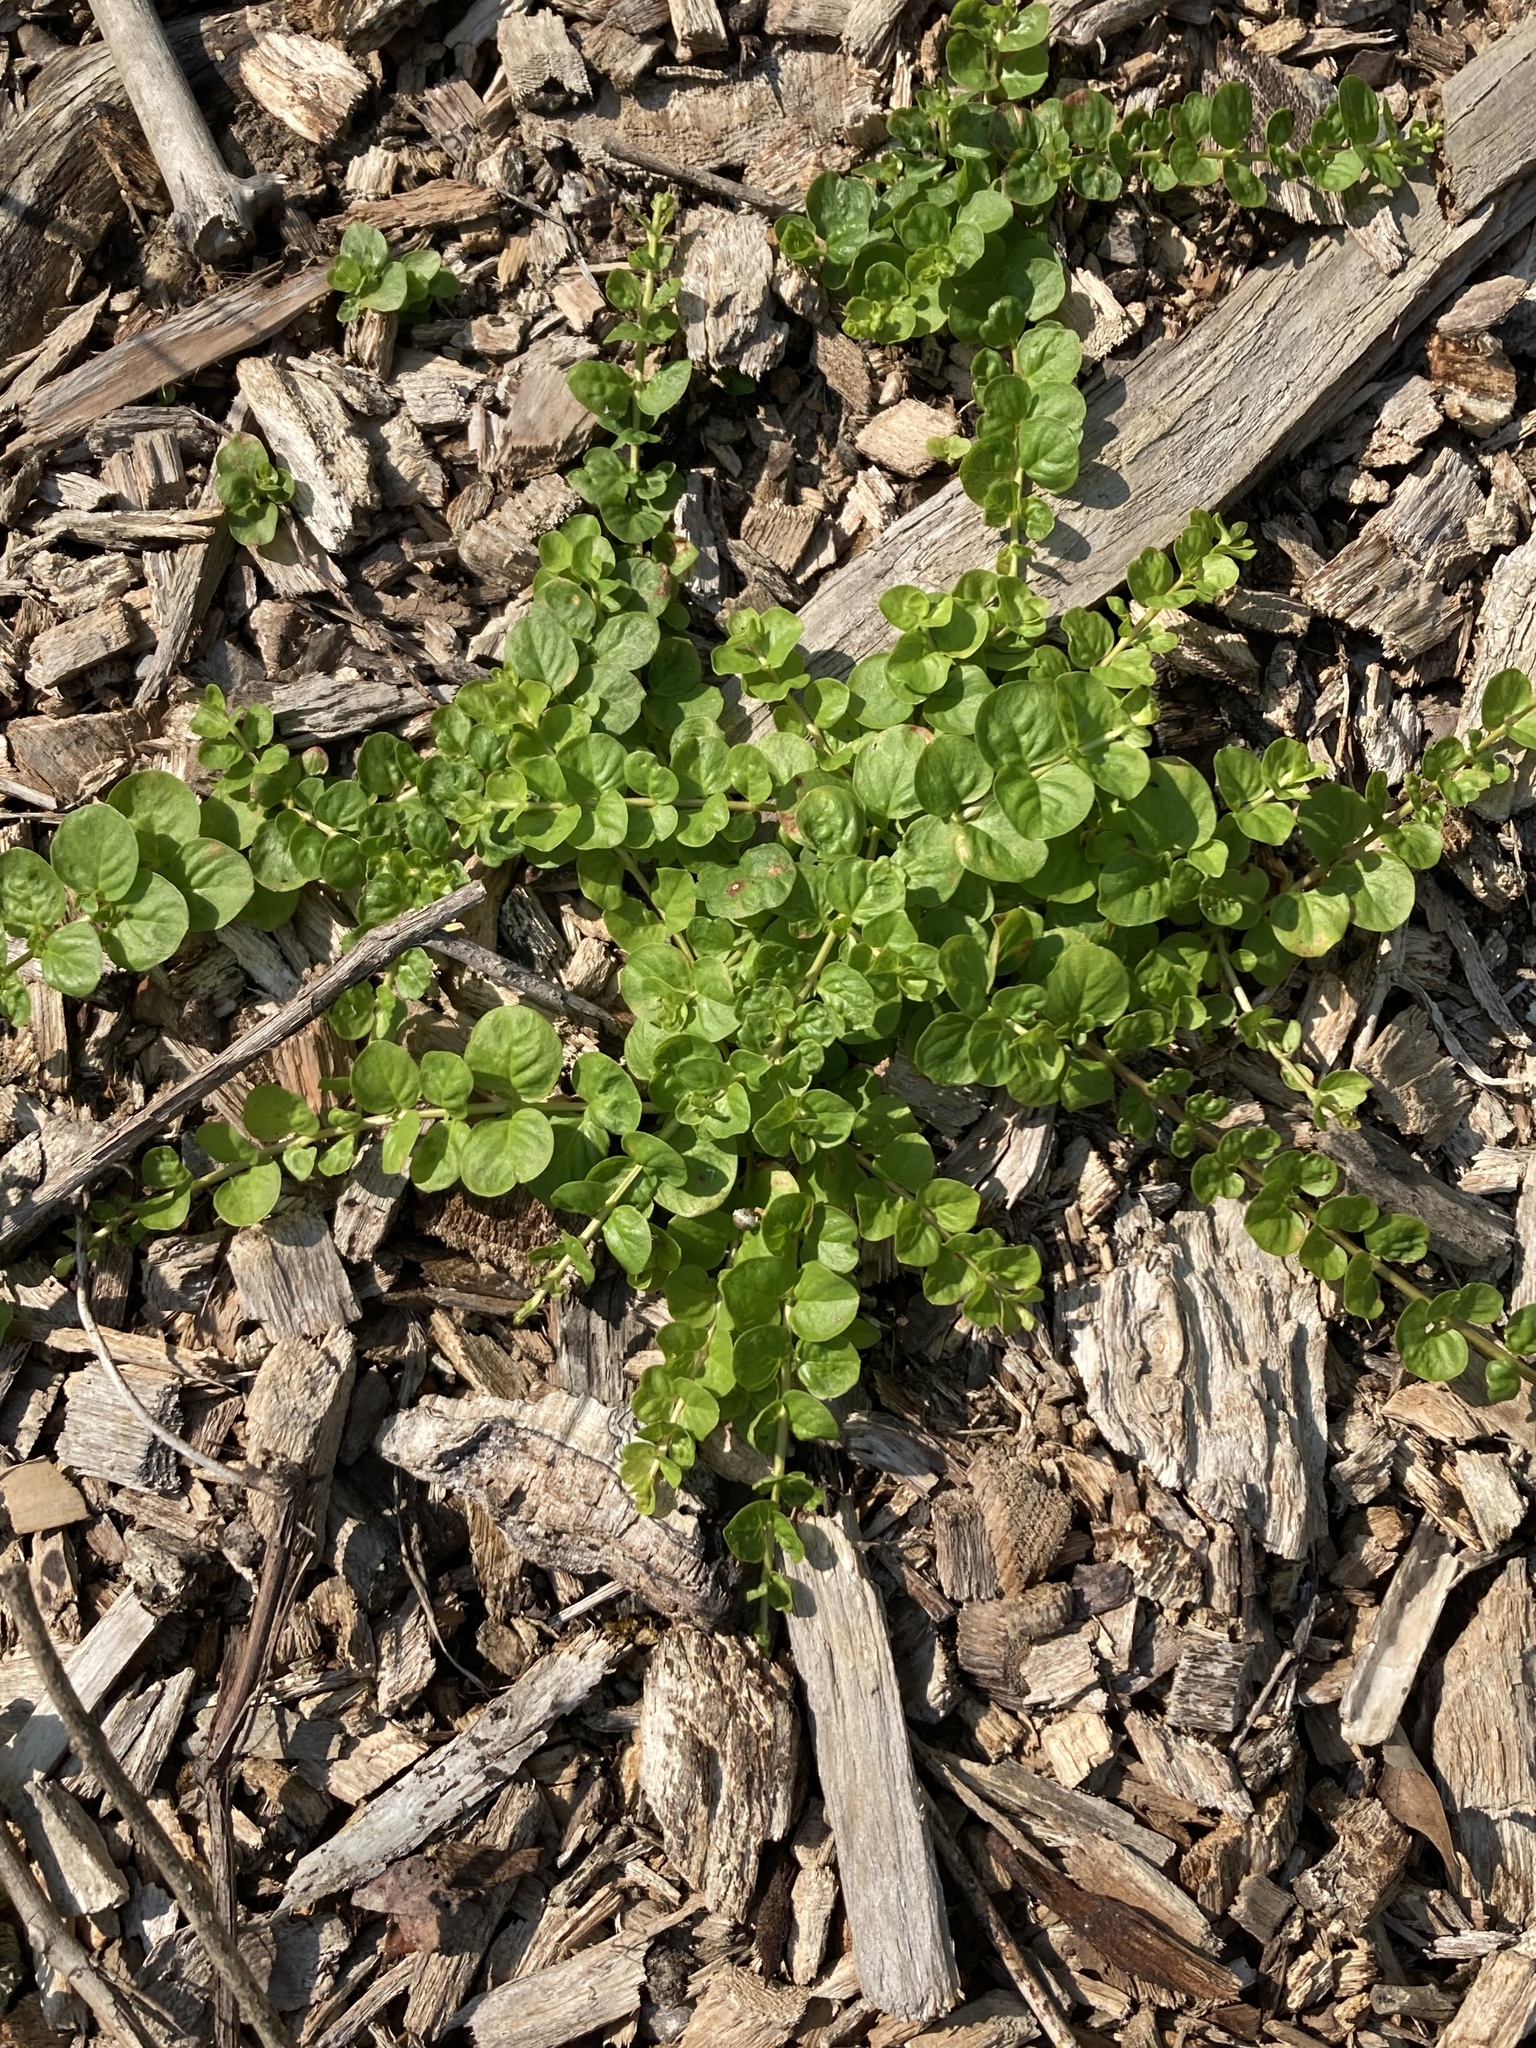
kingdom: Plantae
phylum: Tracheophyta
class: Magnoliopsida
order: Ericales
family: Primulaceae
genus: Lysimachia
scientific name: Lysimachia nummularia
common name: Moneywort
